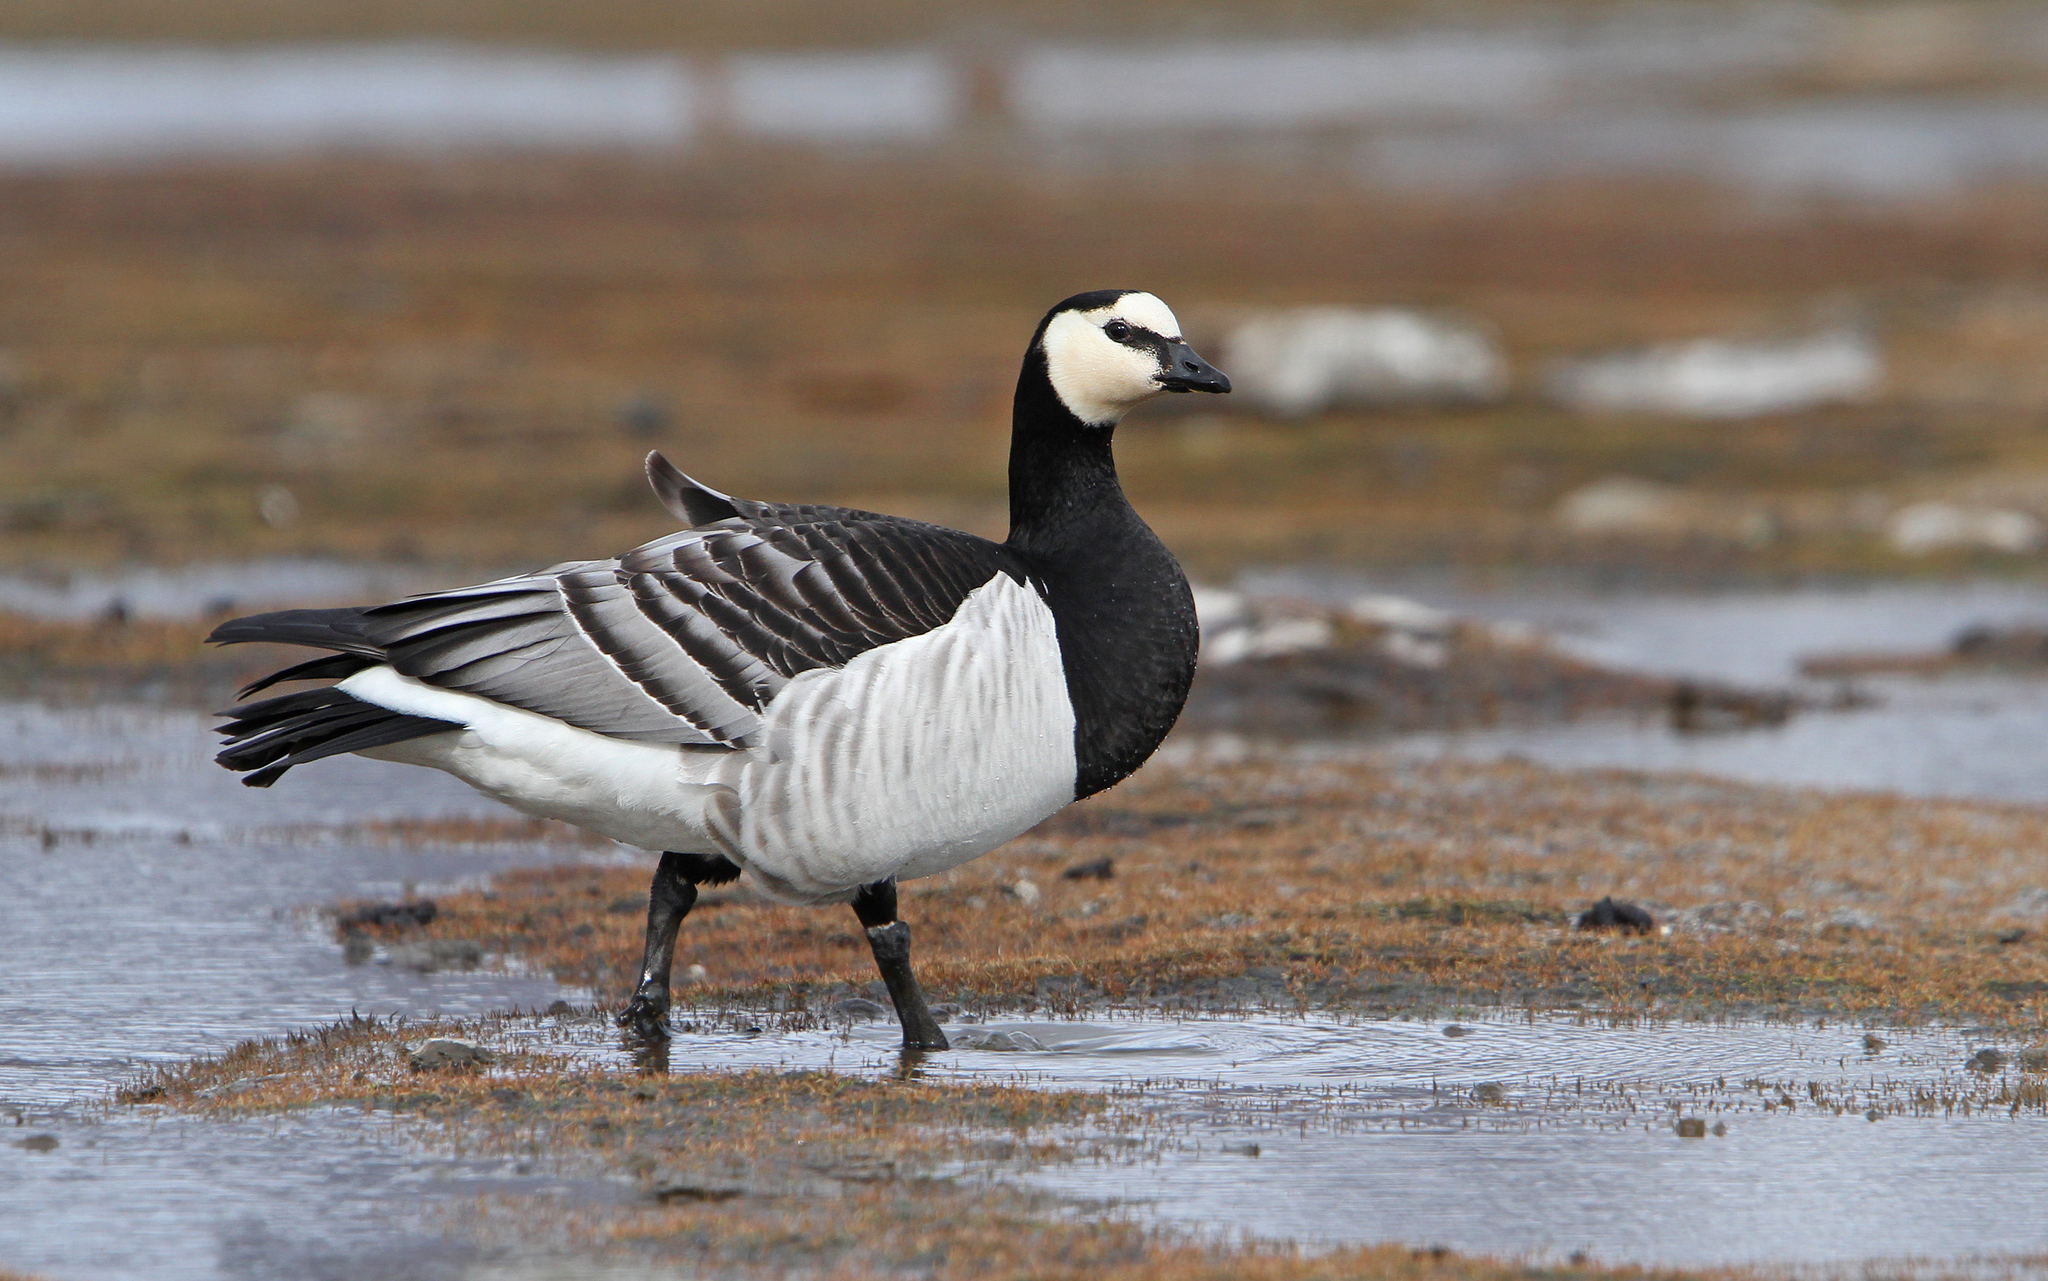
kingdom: Animalia
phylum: Chordata
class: Aves
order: Anseriformes
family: Anatidae
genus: Branta
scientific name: Branta leucopsis
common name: Barnacle goose
